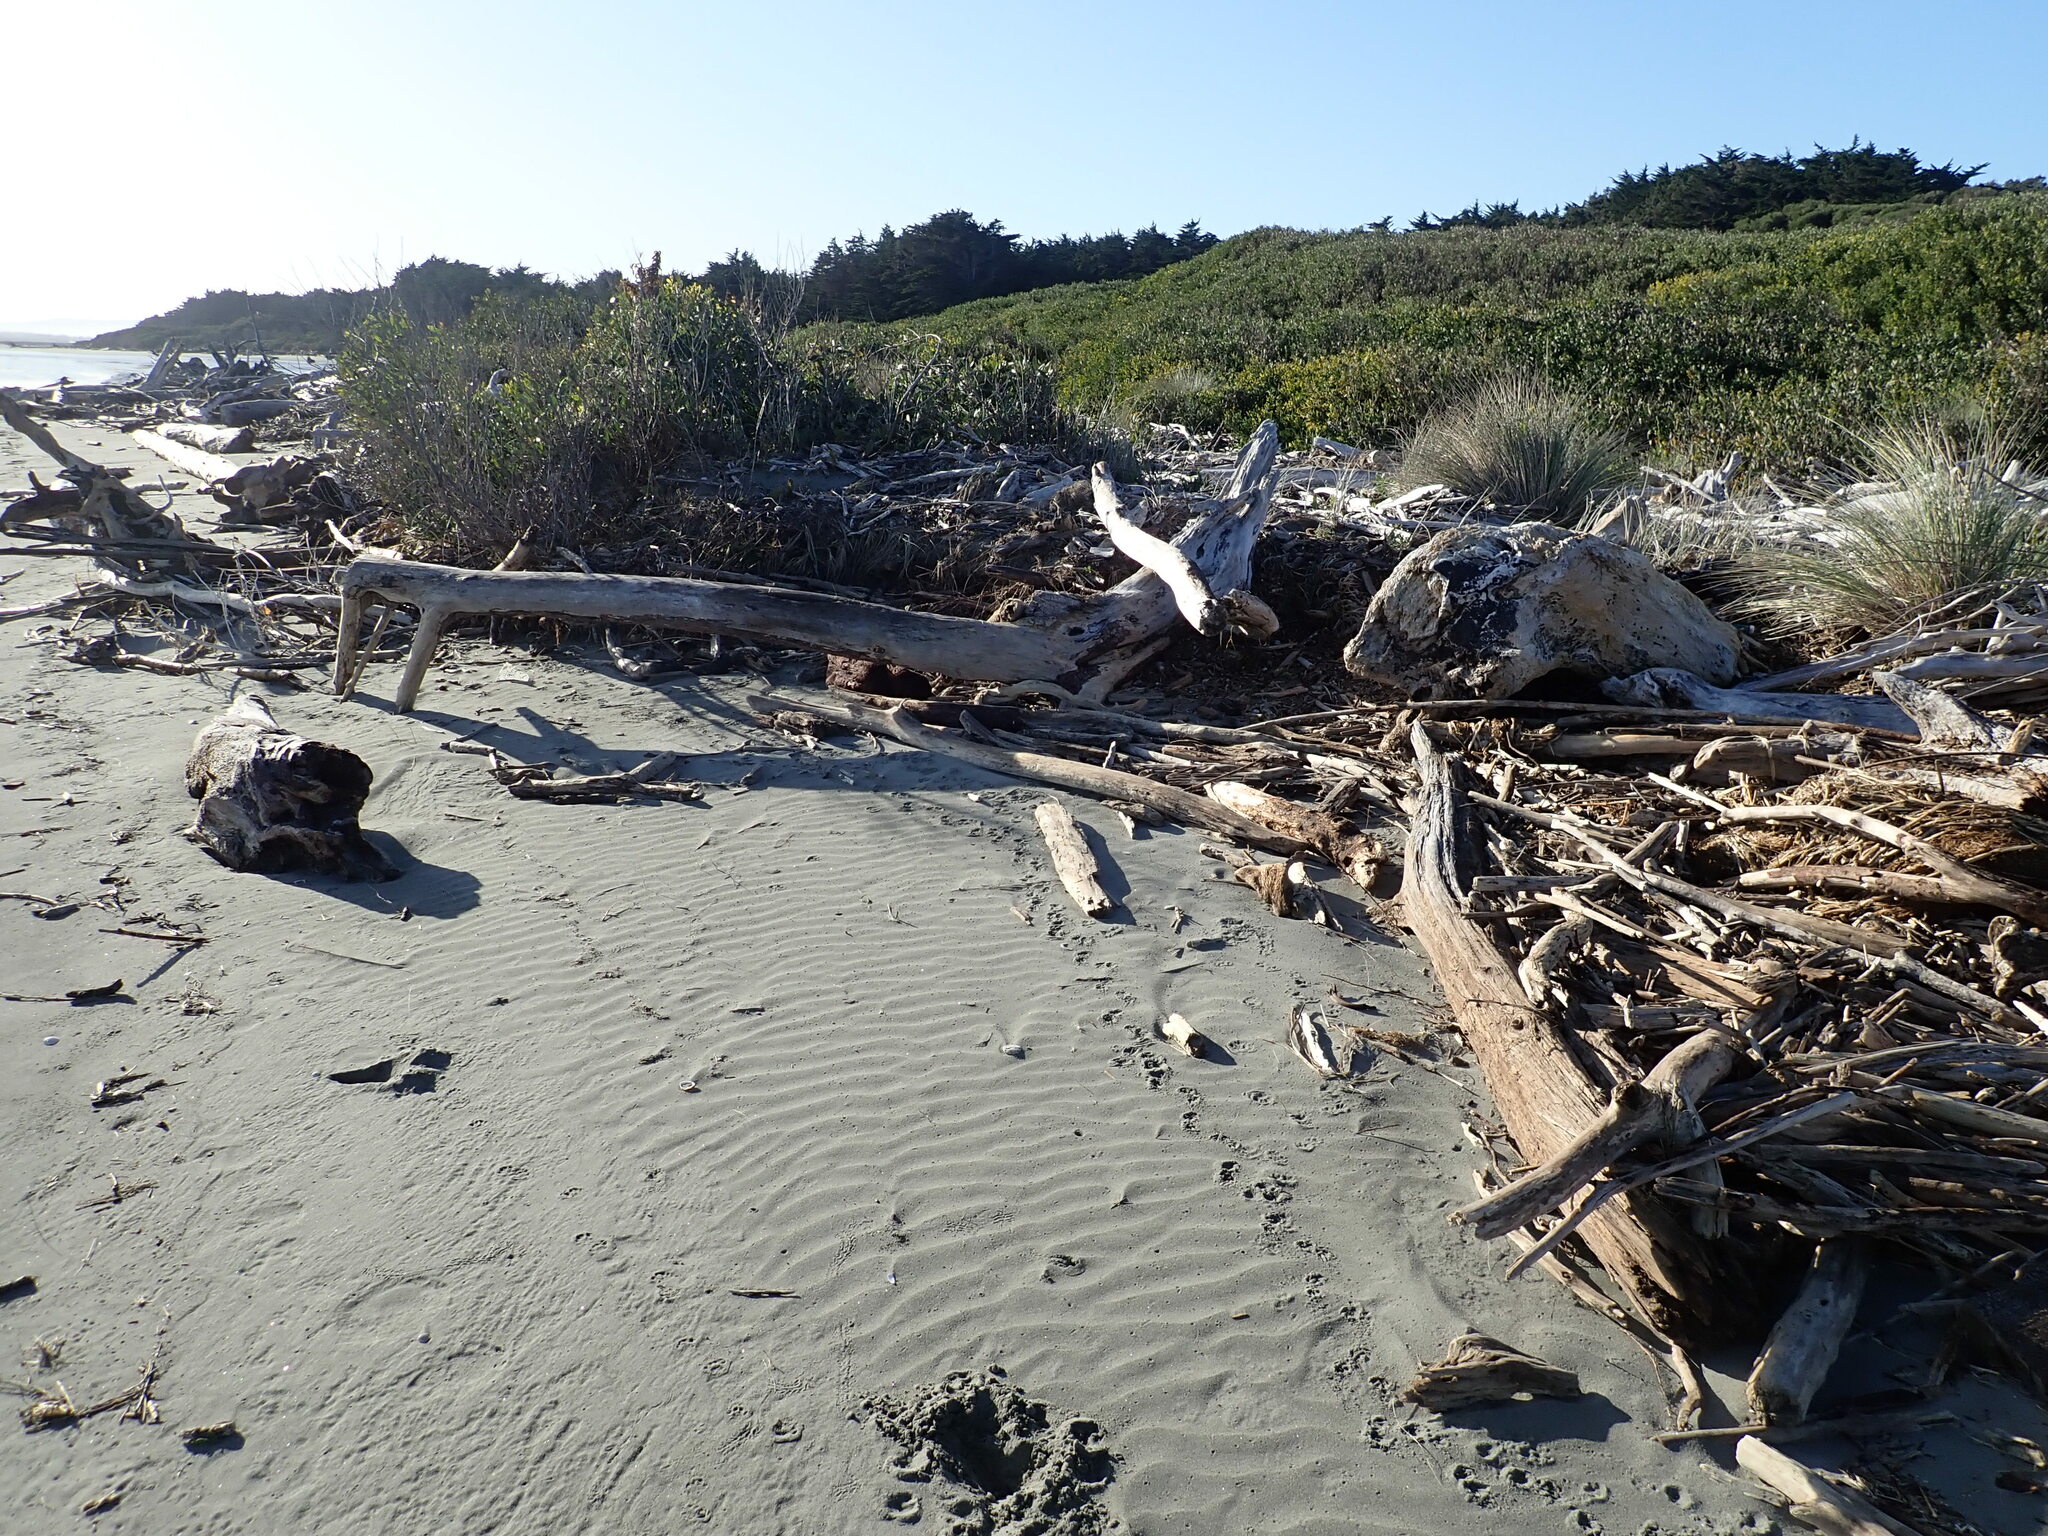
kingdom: Plantae
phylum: Tracheophyta
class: Magnoliopsida
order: Fabales
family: Fabaceae
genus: Acacia
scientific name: Acacia longifolia
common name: Sydney golden wattle
